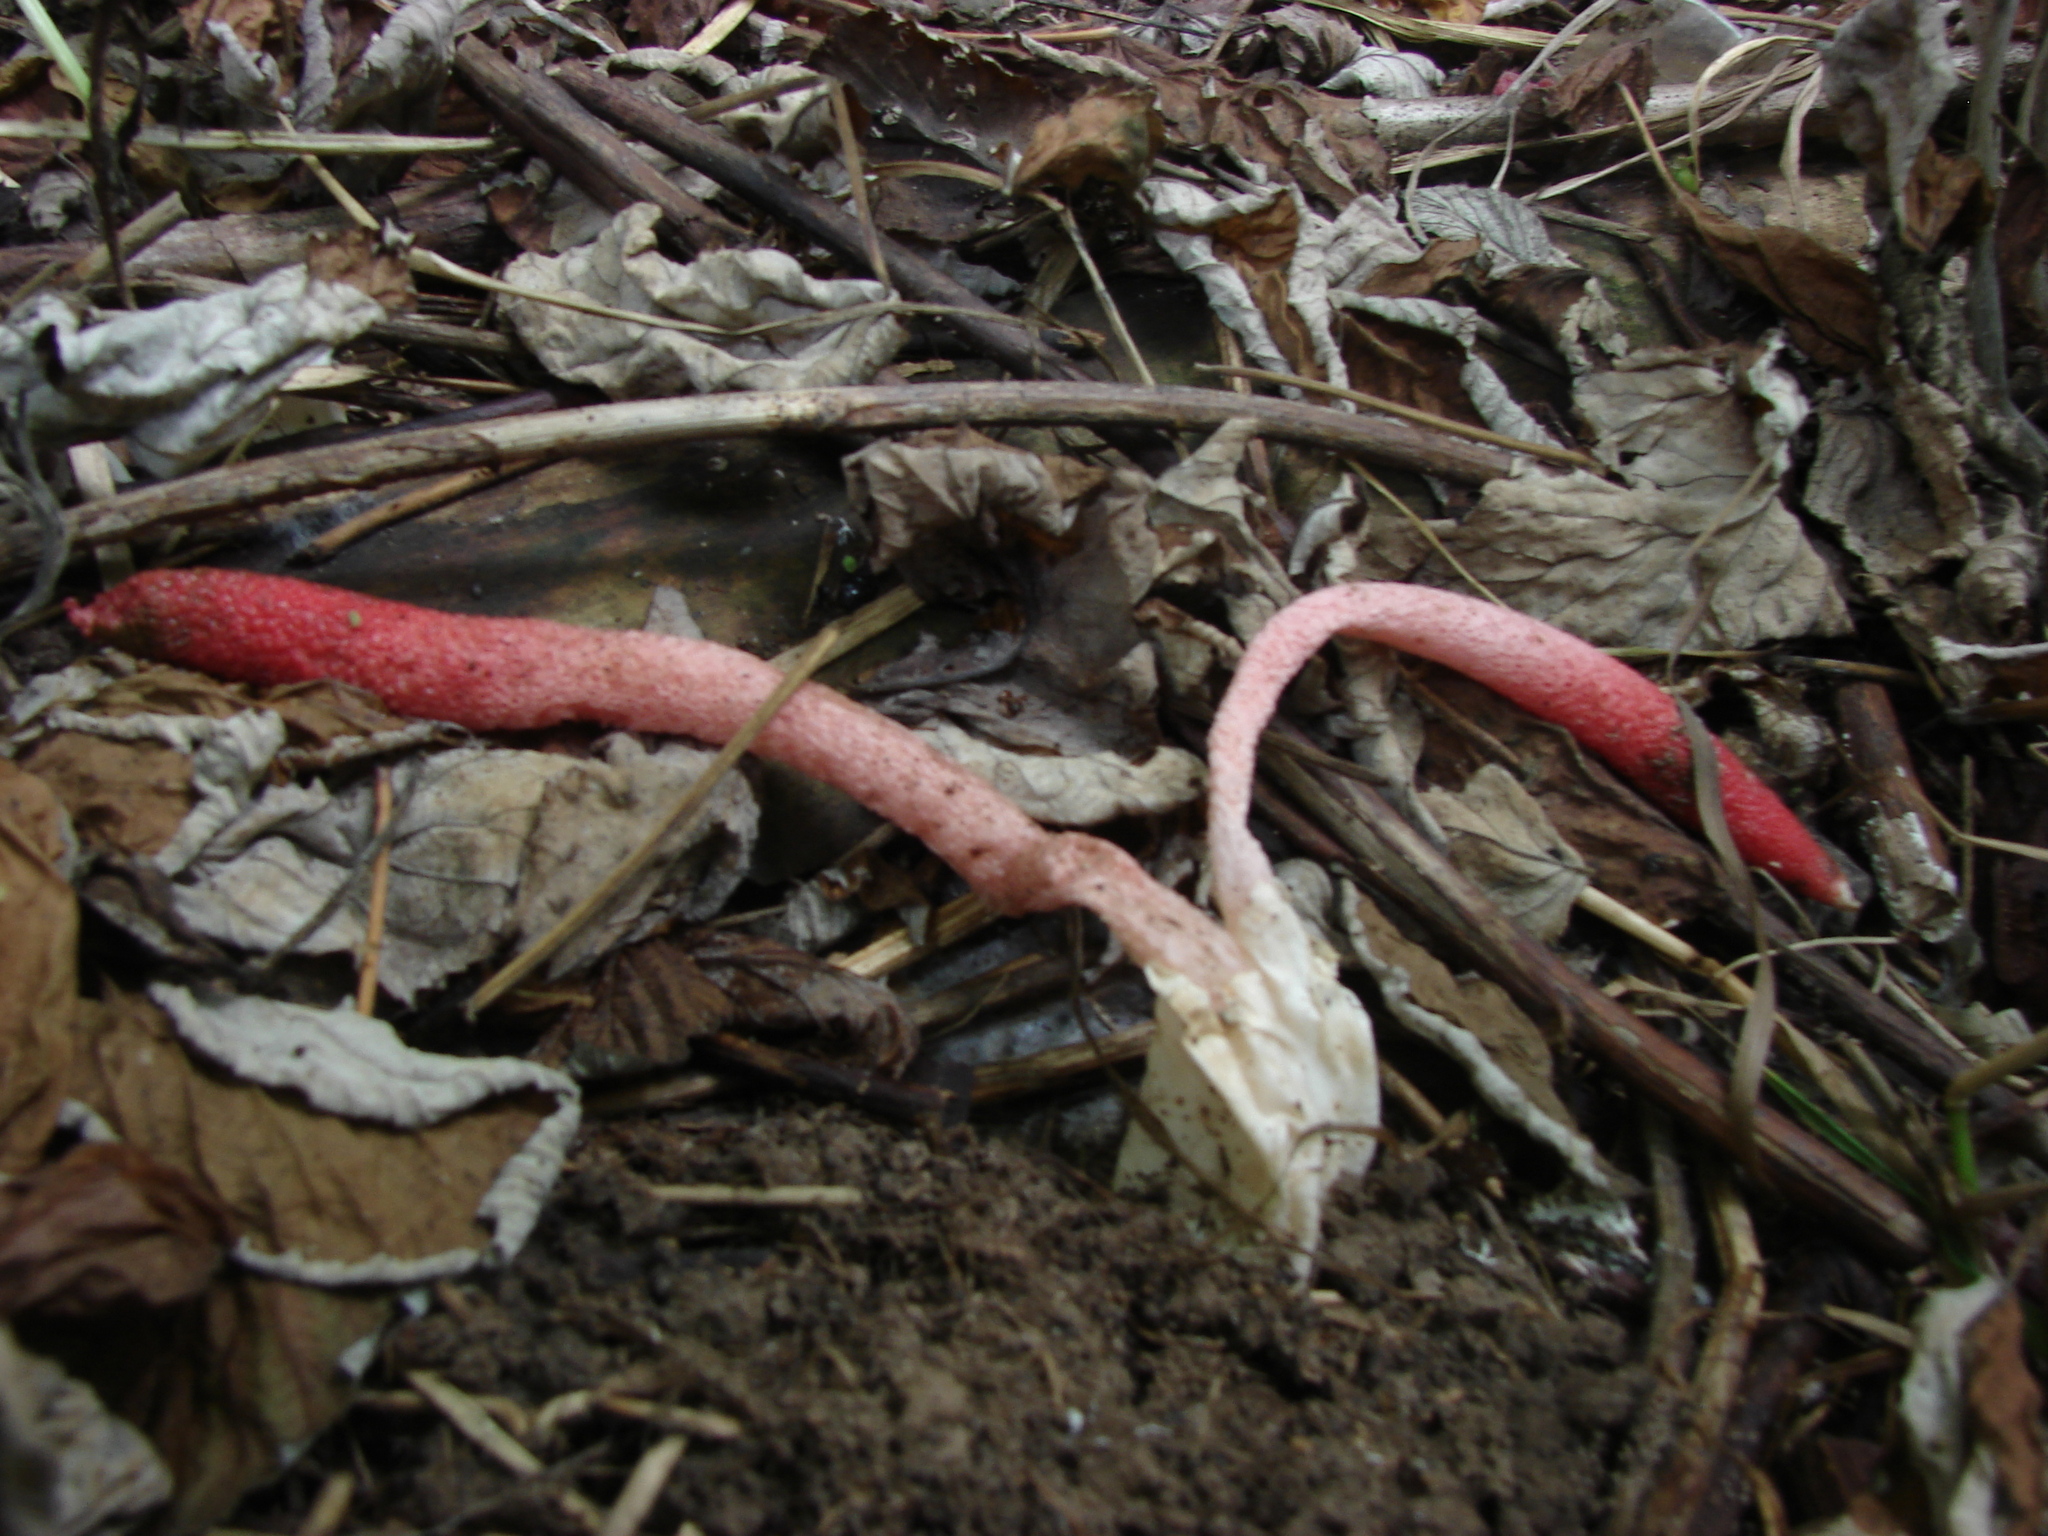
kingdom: Fungi
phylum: Basidiomycota
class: Agaricomycetes
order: Phallales
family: Phallaceae
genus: Mutinus
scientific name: Mutinus ravenelii
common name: Red stinkhorn
